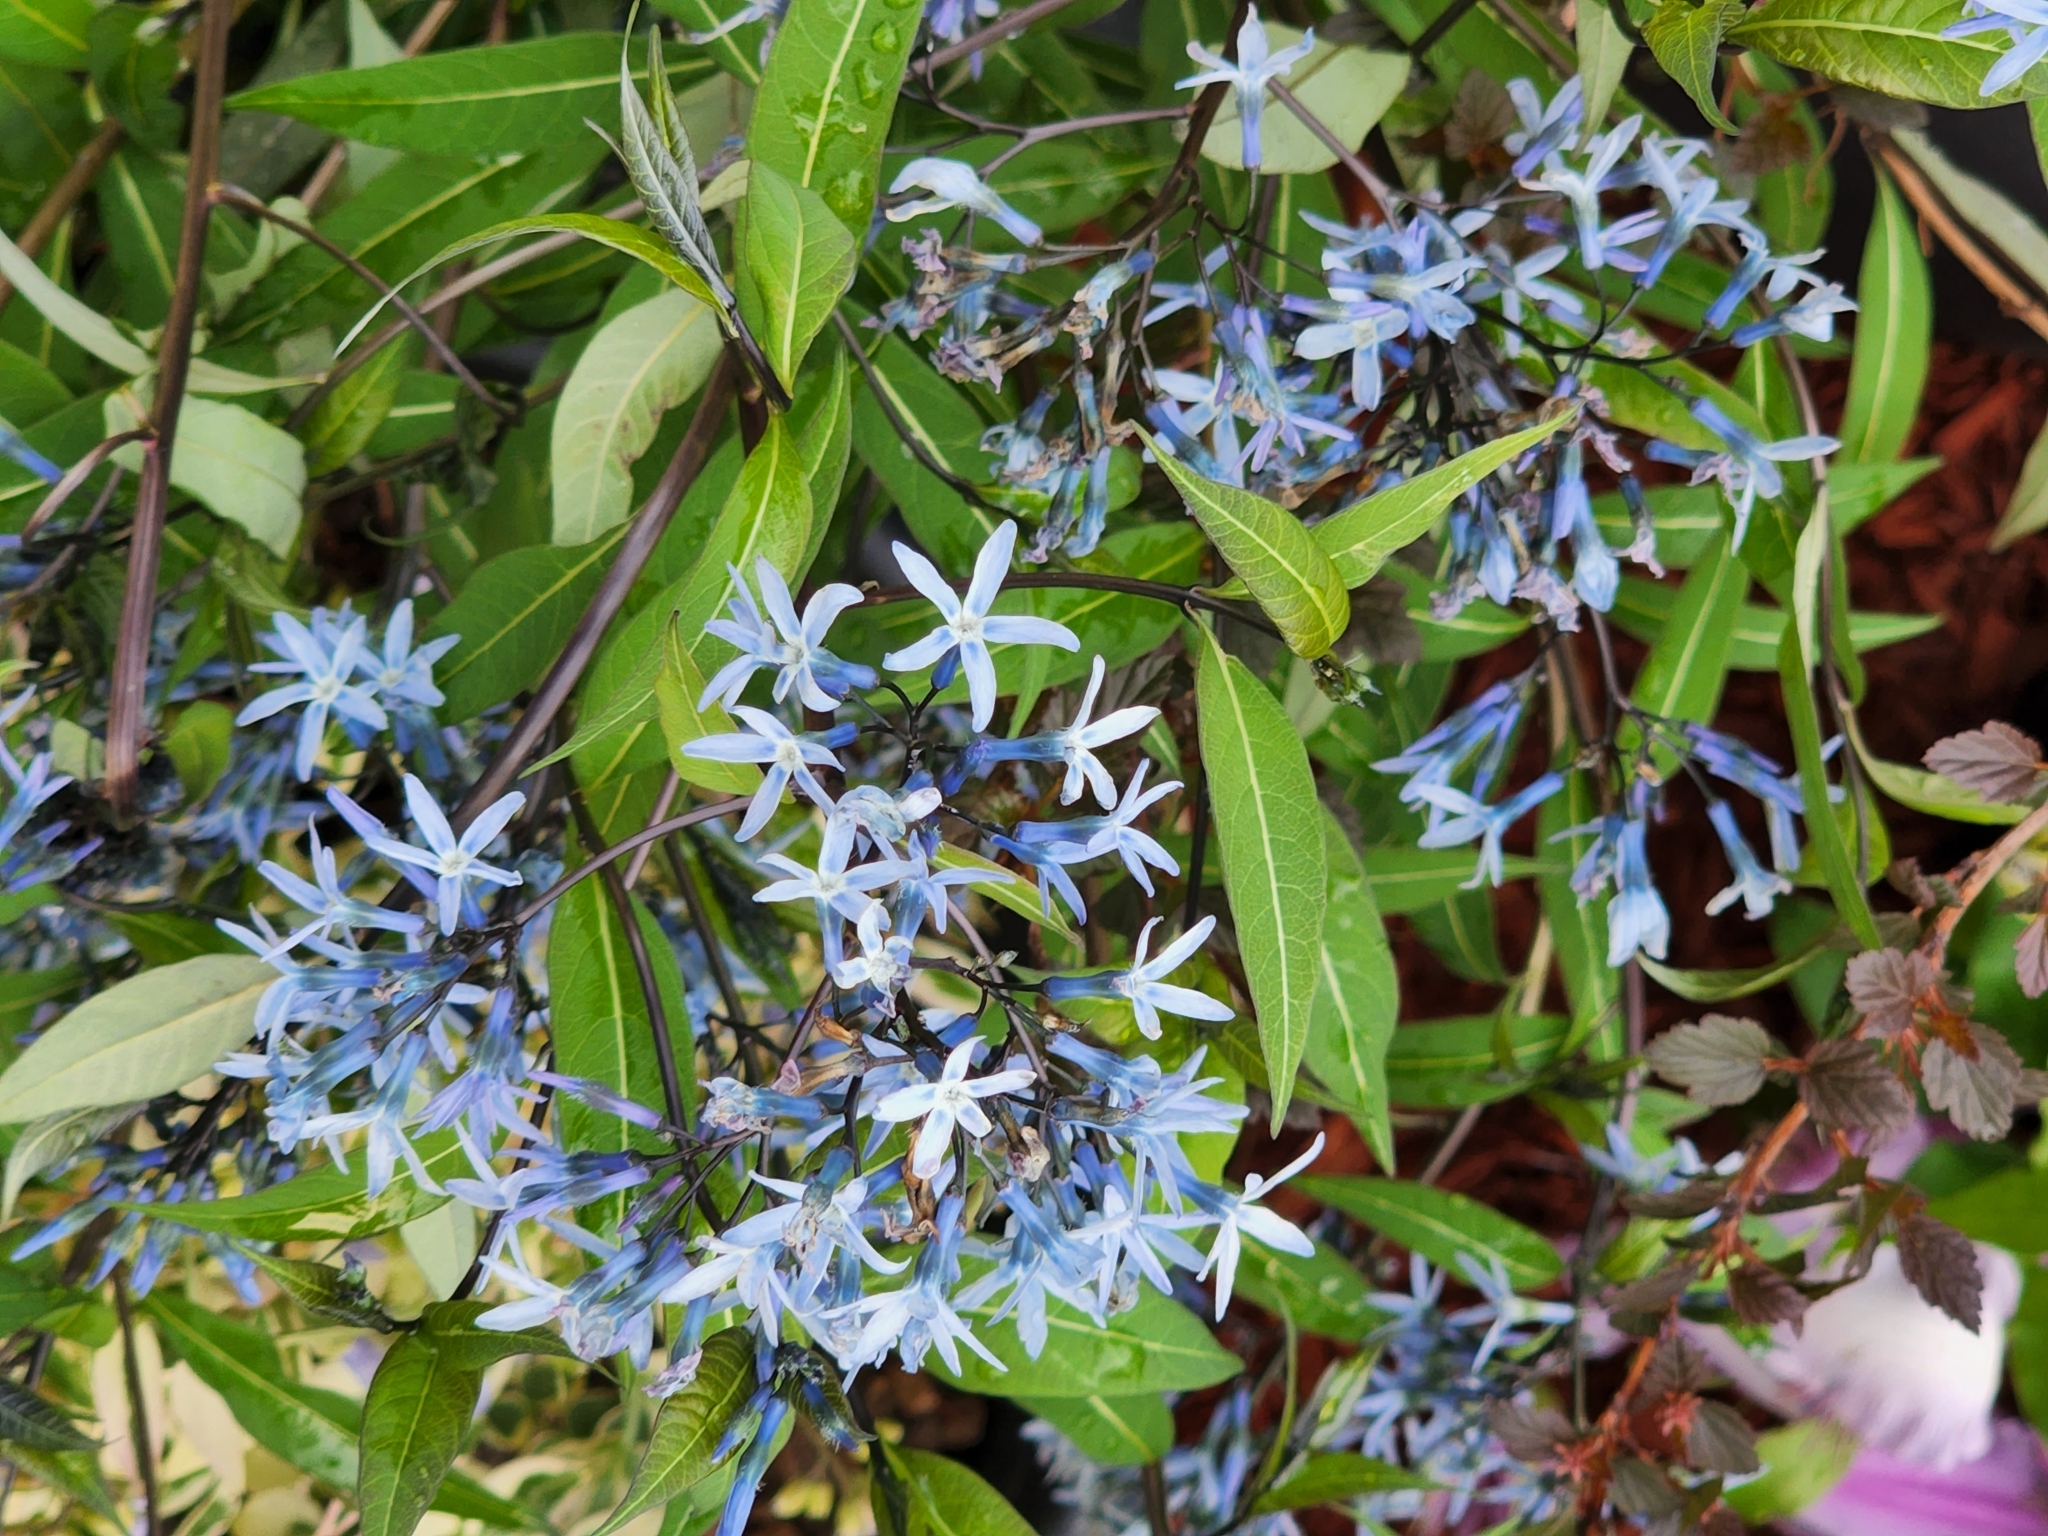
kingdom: Plantae
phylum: Tracheophyta
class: Magnoliopsida
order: Gentianales
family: Apocynaceae
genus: Amsonia
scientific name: Amsonia ciliata
